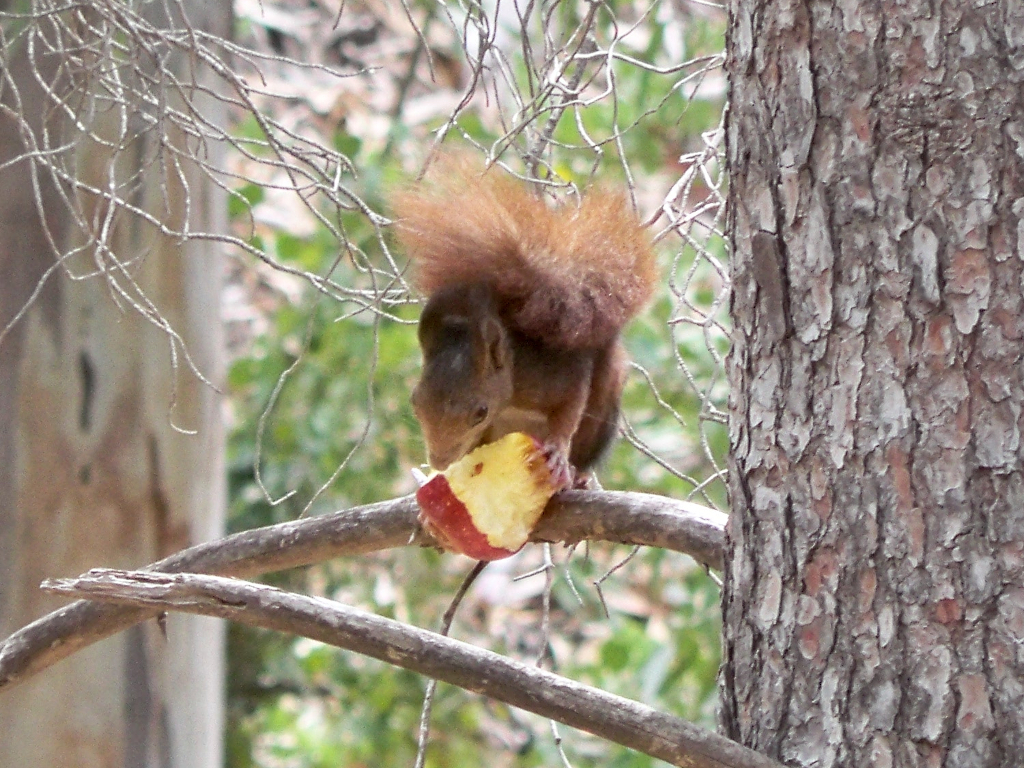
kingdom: Animalia
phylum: Chordata
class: Mammalia
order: Rodentia
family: Sciuridae
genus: Sciurus
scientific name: Sciurus vulgaris
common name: Eurasian red squirrel
